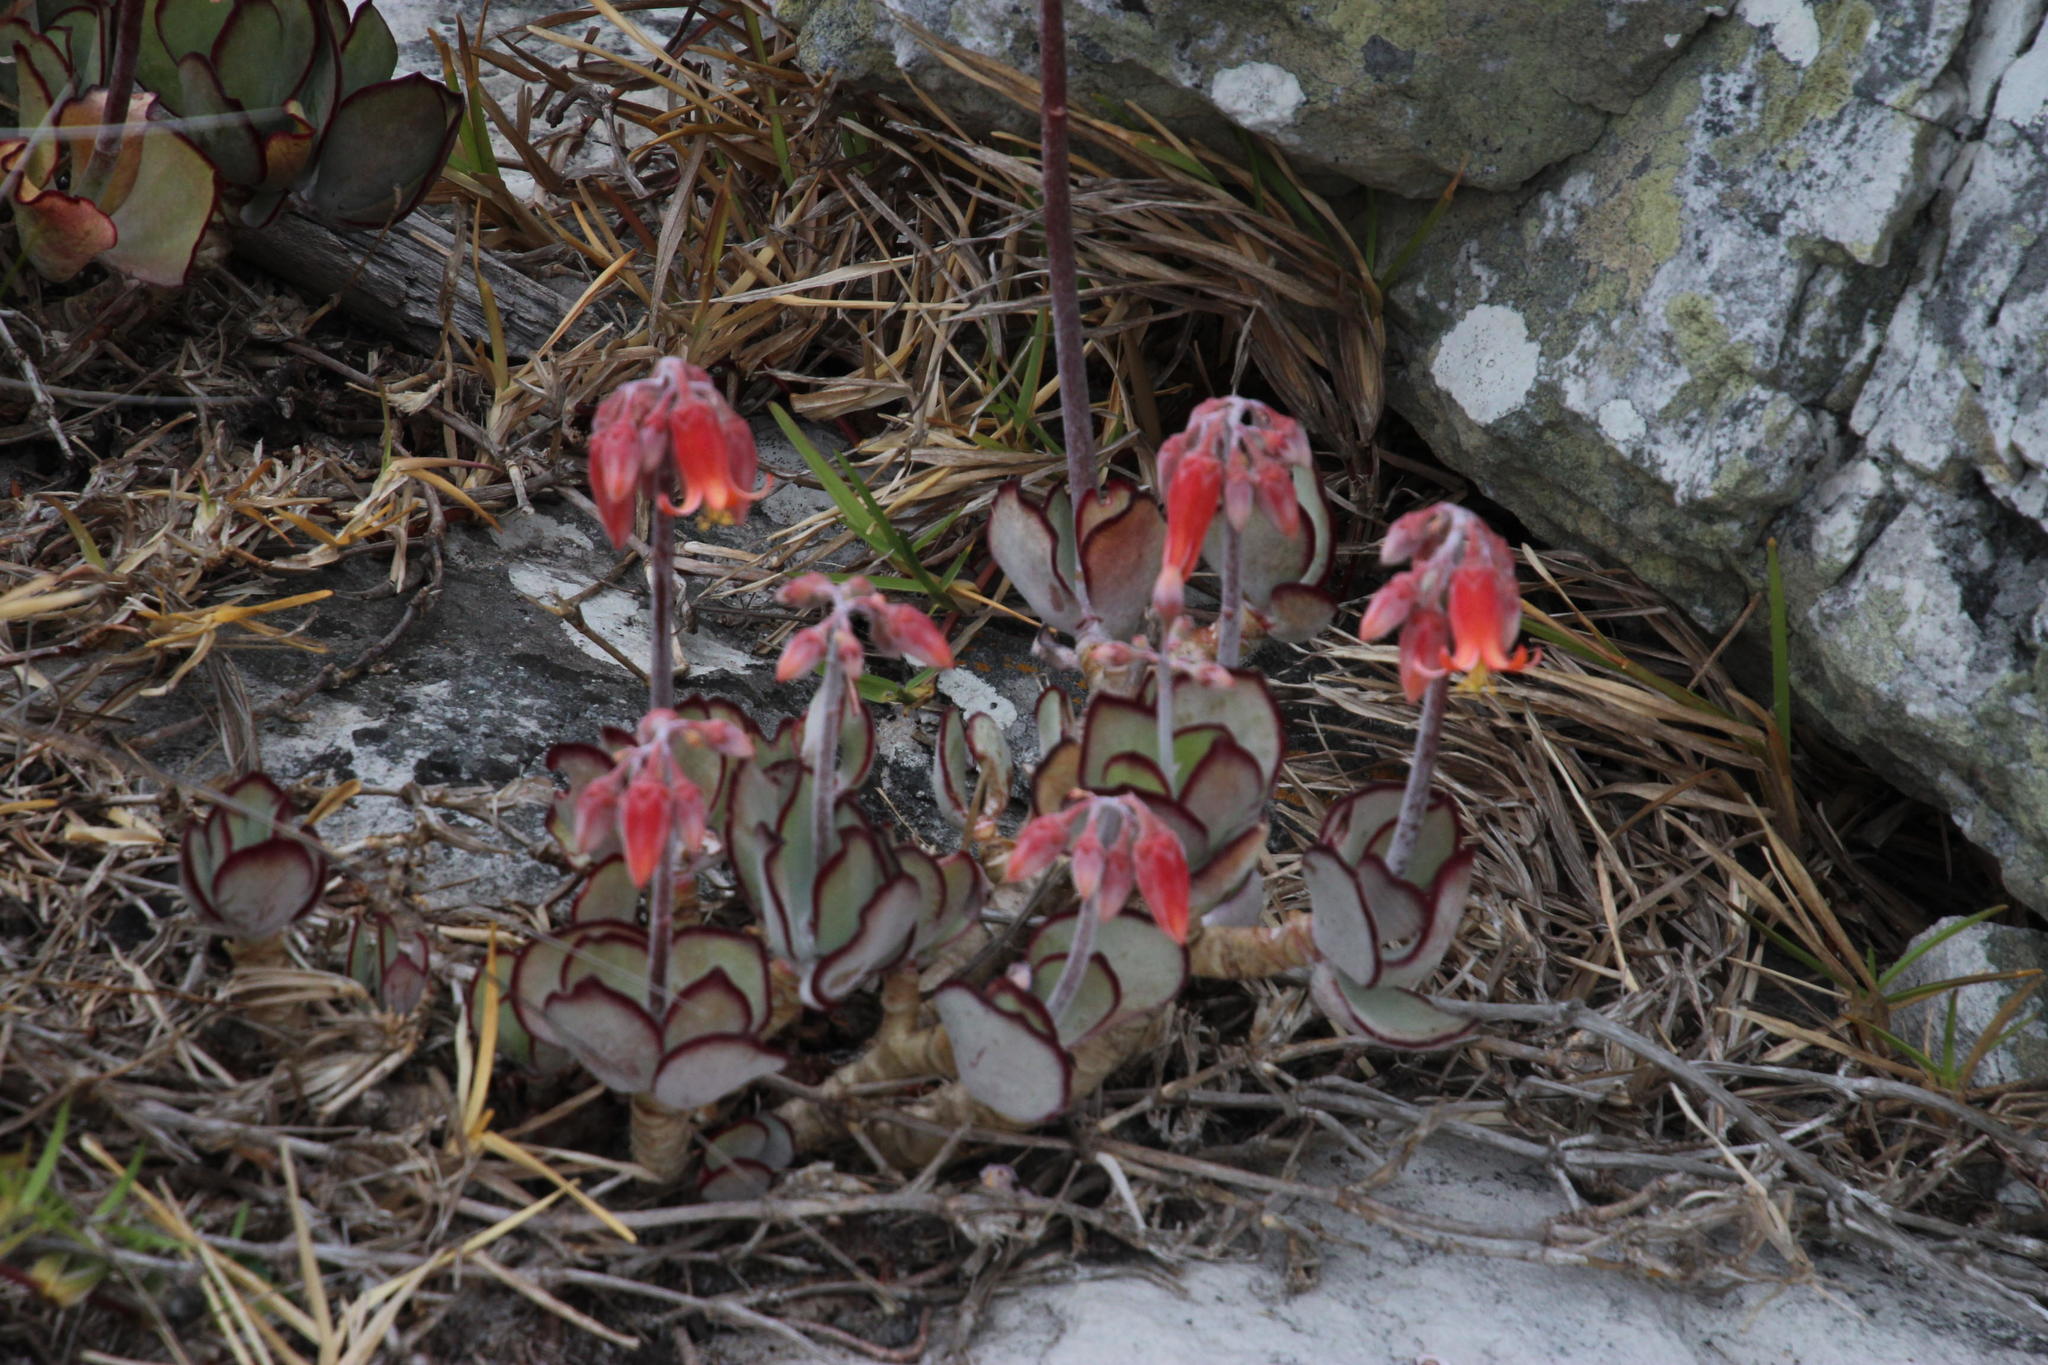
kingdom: Plantae
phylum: Tracheophyta
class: Magnoliopsida
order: Saxifragales
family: Crassulaceae
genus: Cotyledon
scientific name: Cotyledon orbiculata
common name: Pig's ear
